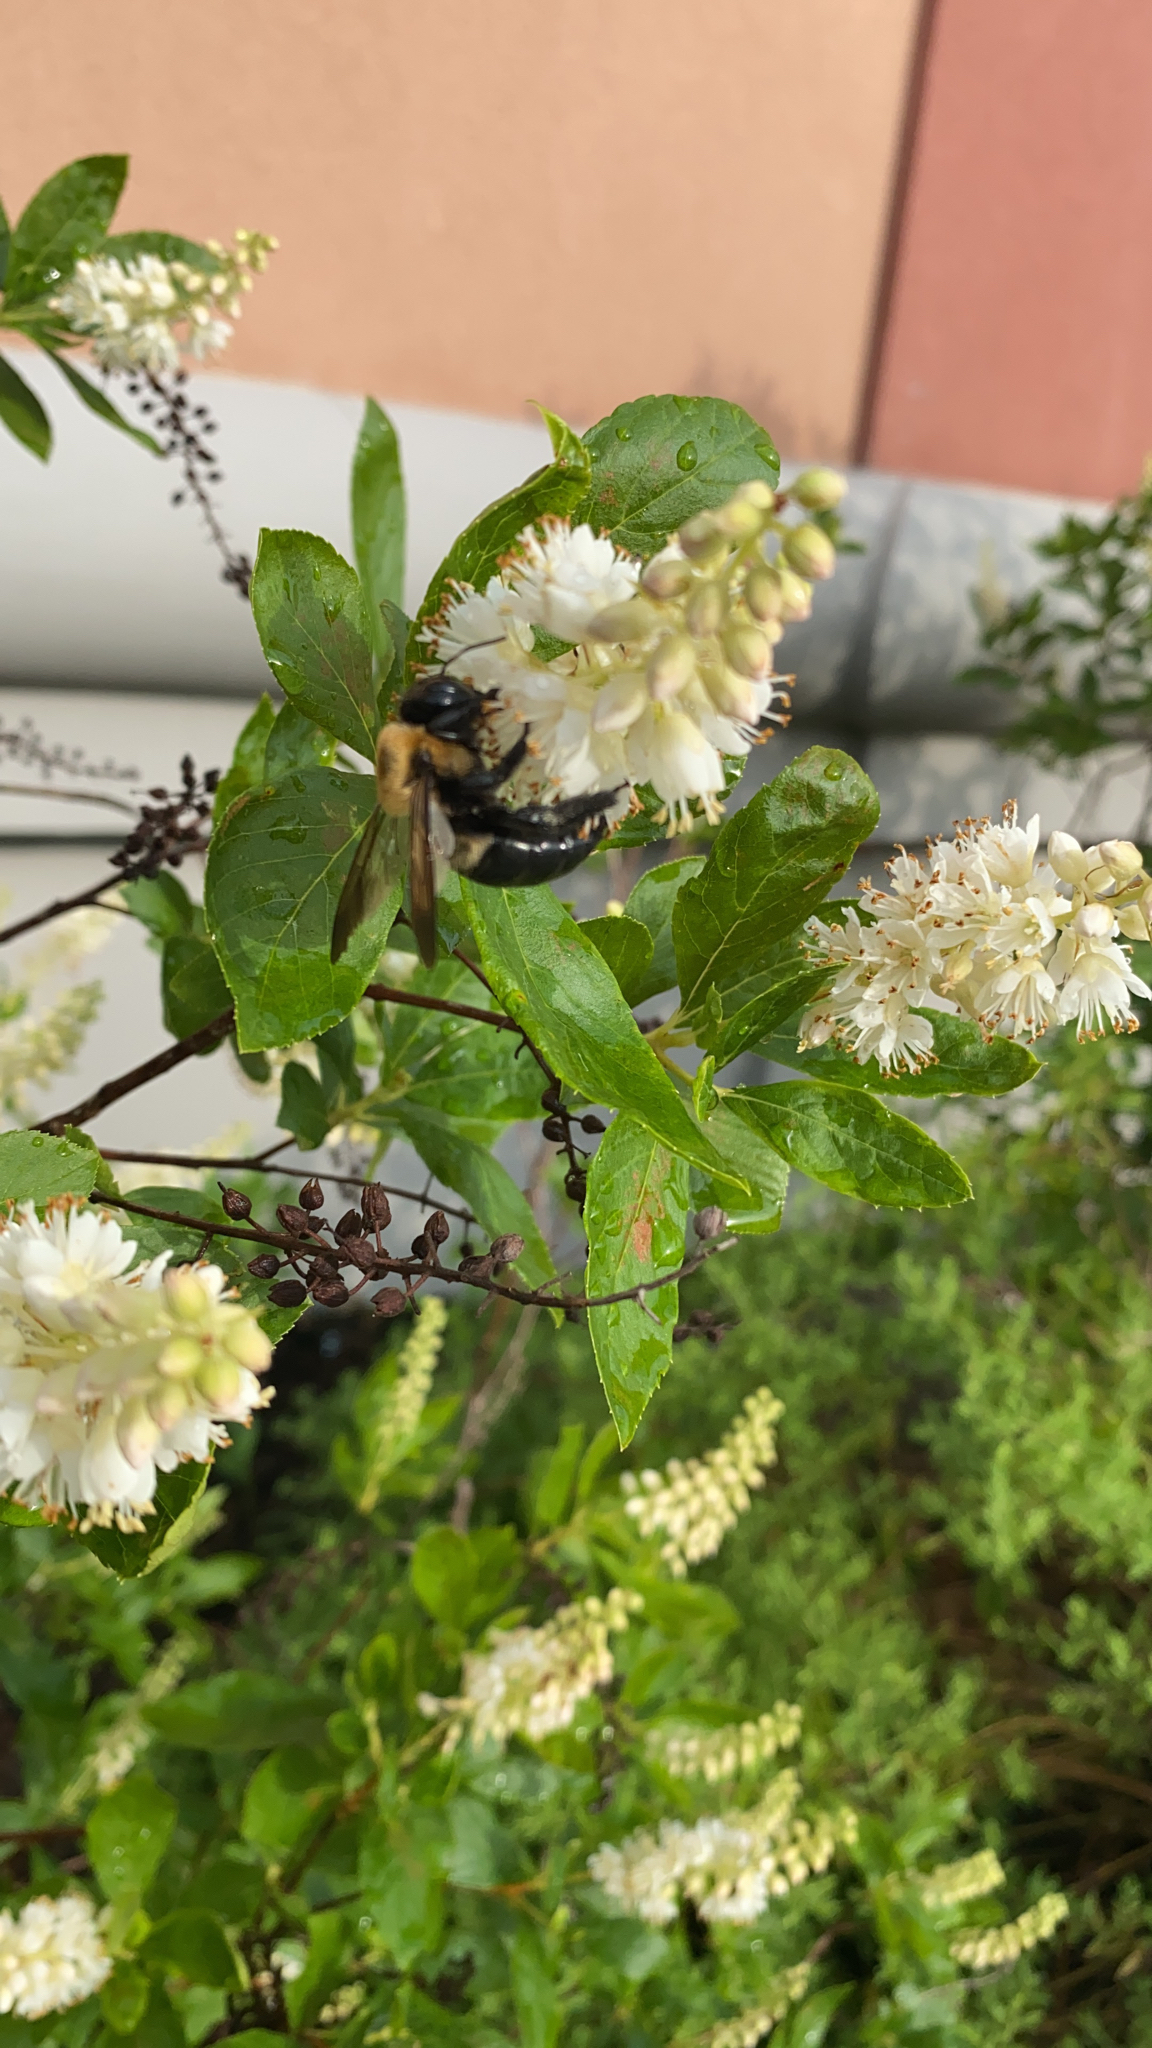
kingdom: Animalia
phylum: Arthropoda
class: Insecta
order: Hymenoptera
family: Apidae
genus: Xylocopa
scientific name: Xylocopa virginica
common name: Carpenter bee
